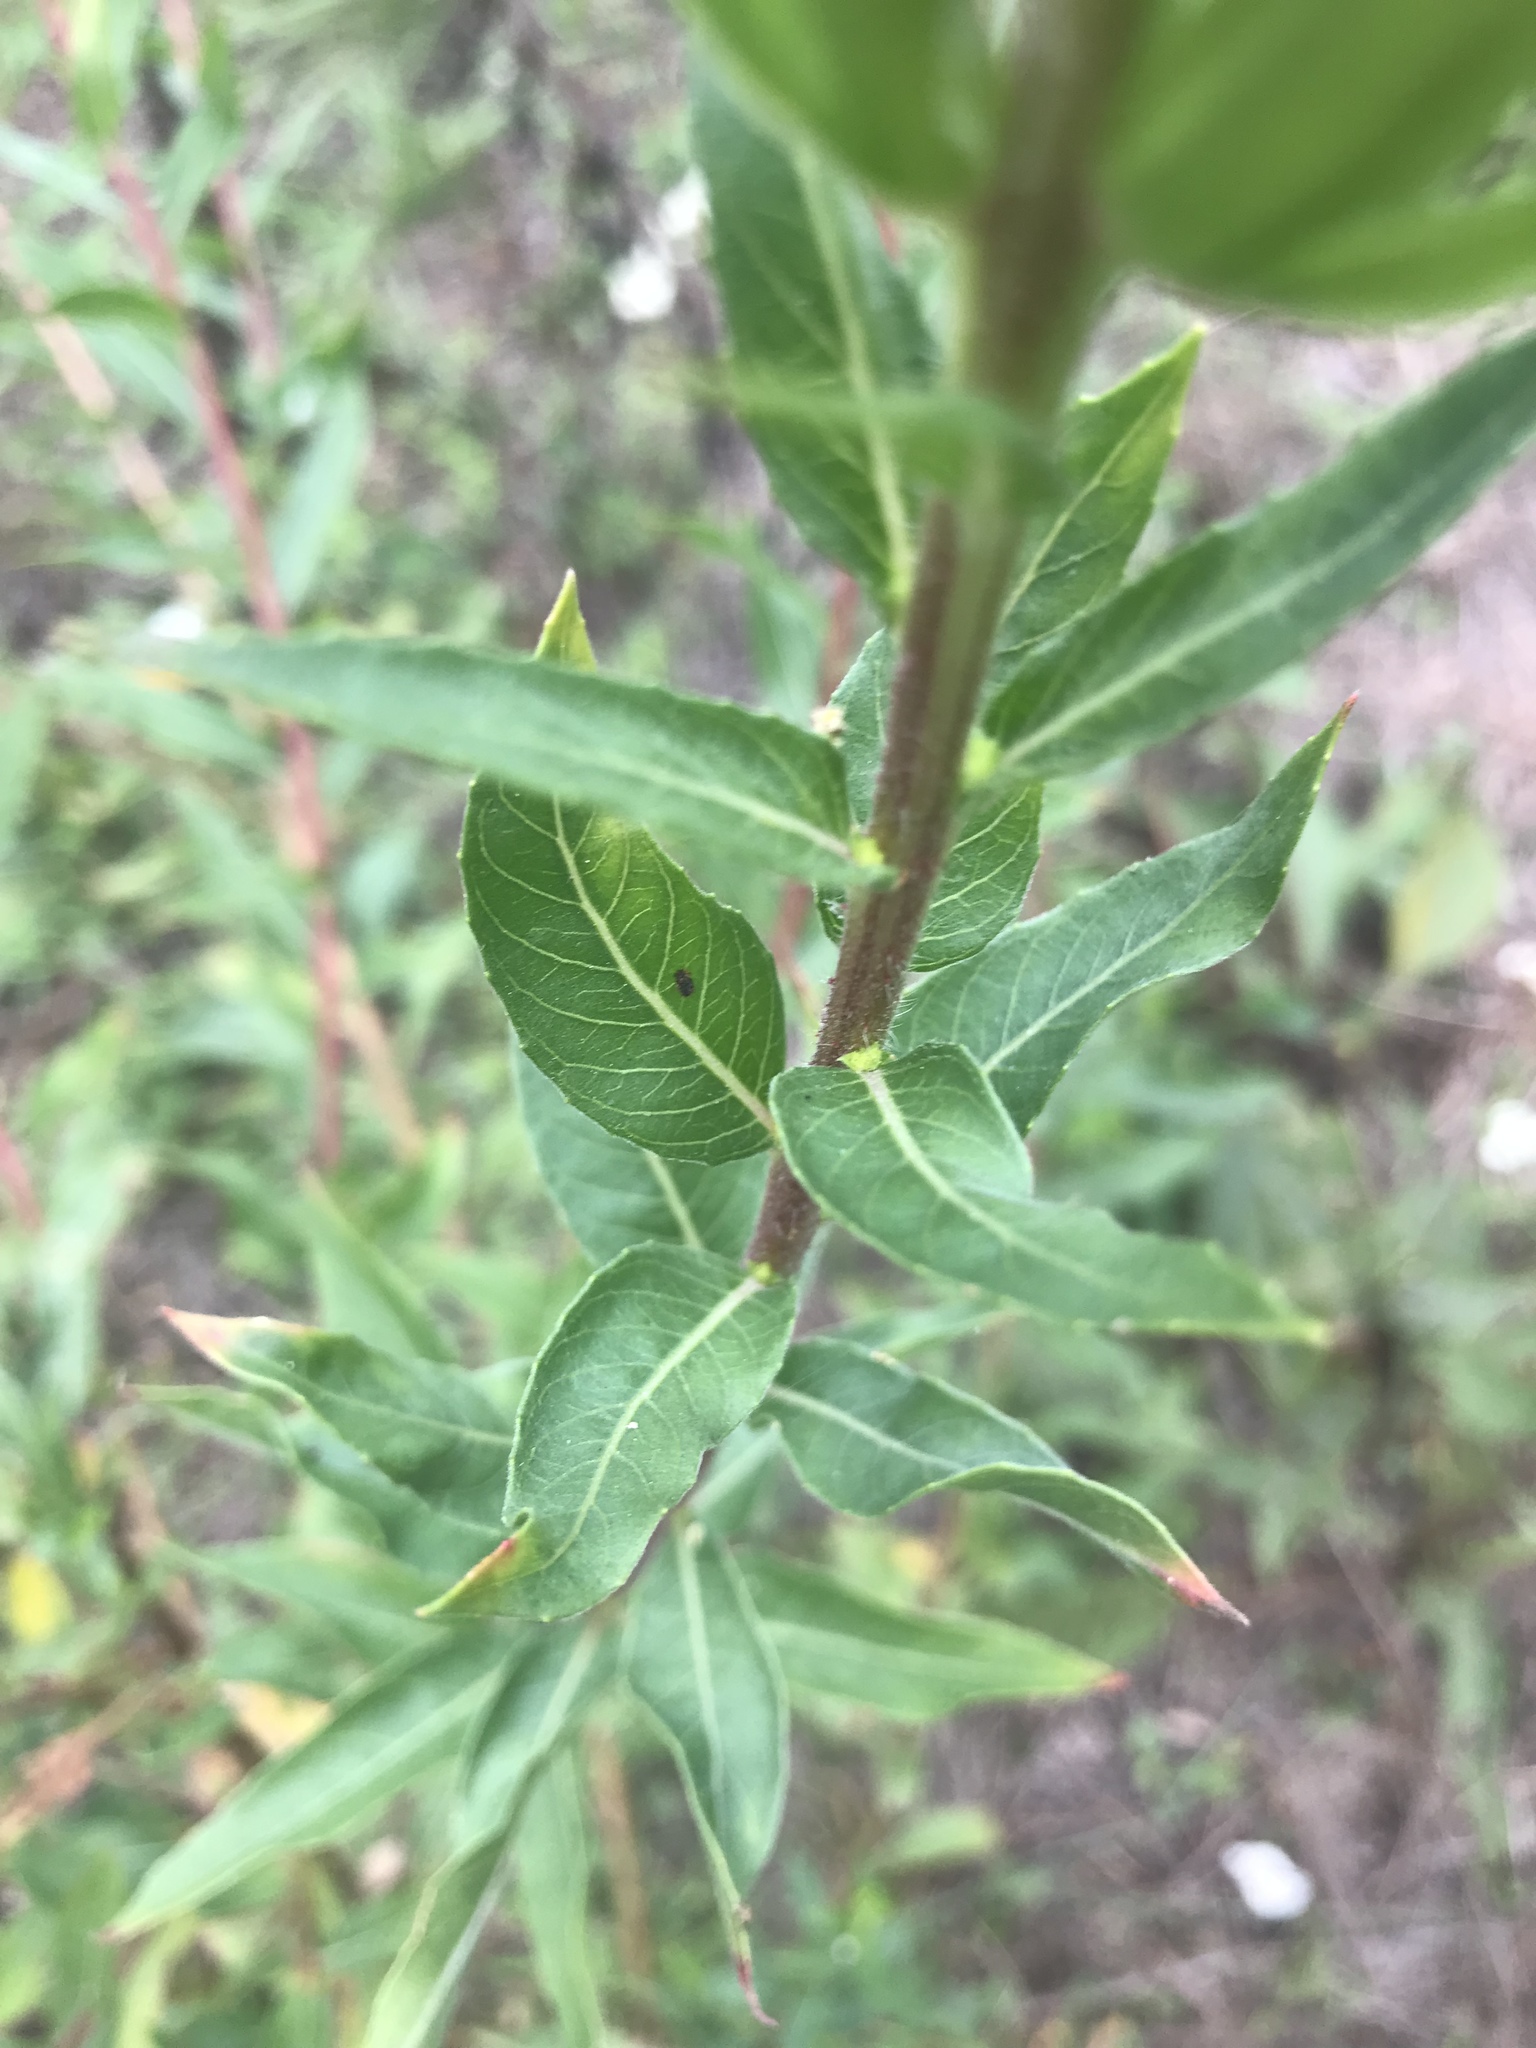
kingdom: Plantae
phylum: Tracheophyta
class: Magnoliopsida
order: Myrtales
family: Onagraceae
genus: Oenothera
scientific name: Oenothera biennis
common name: Common evening-primrose
